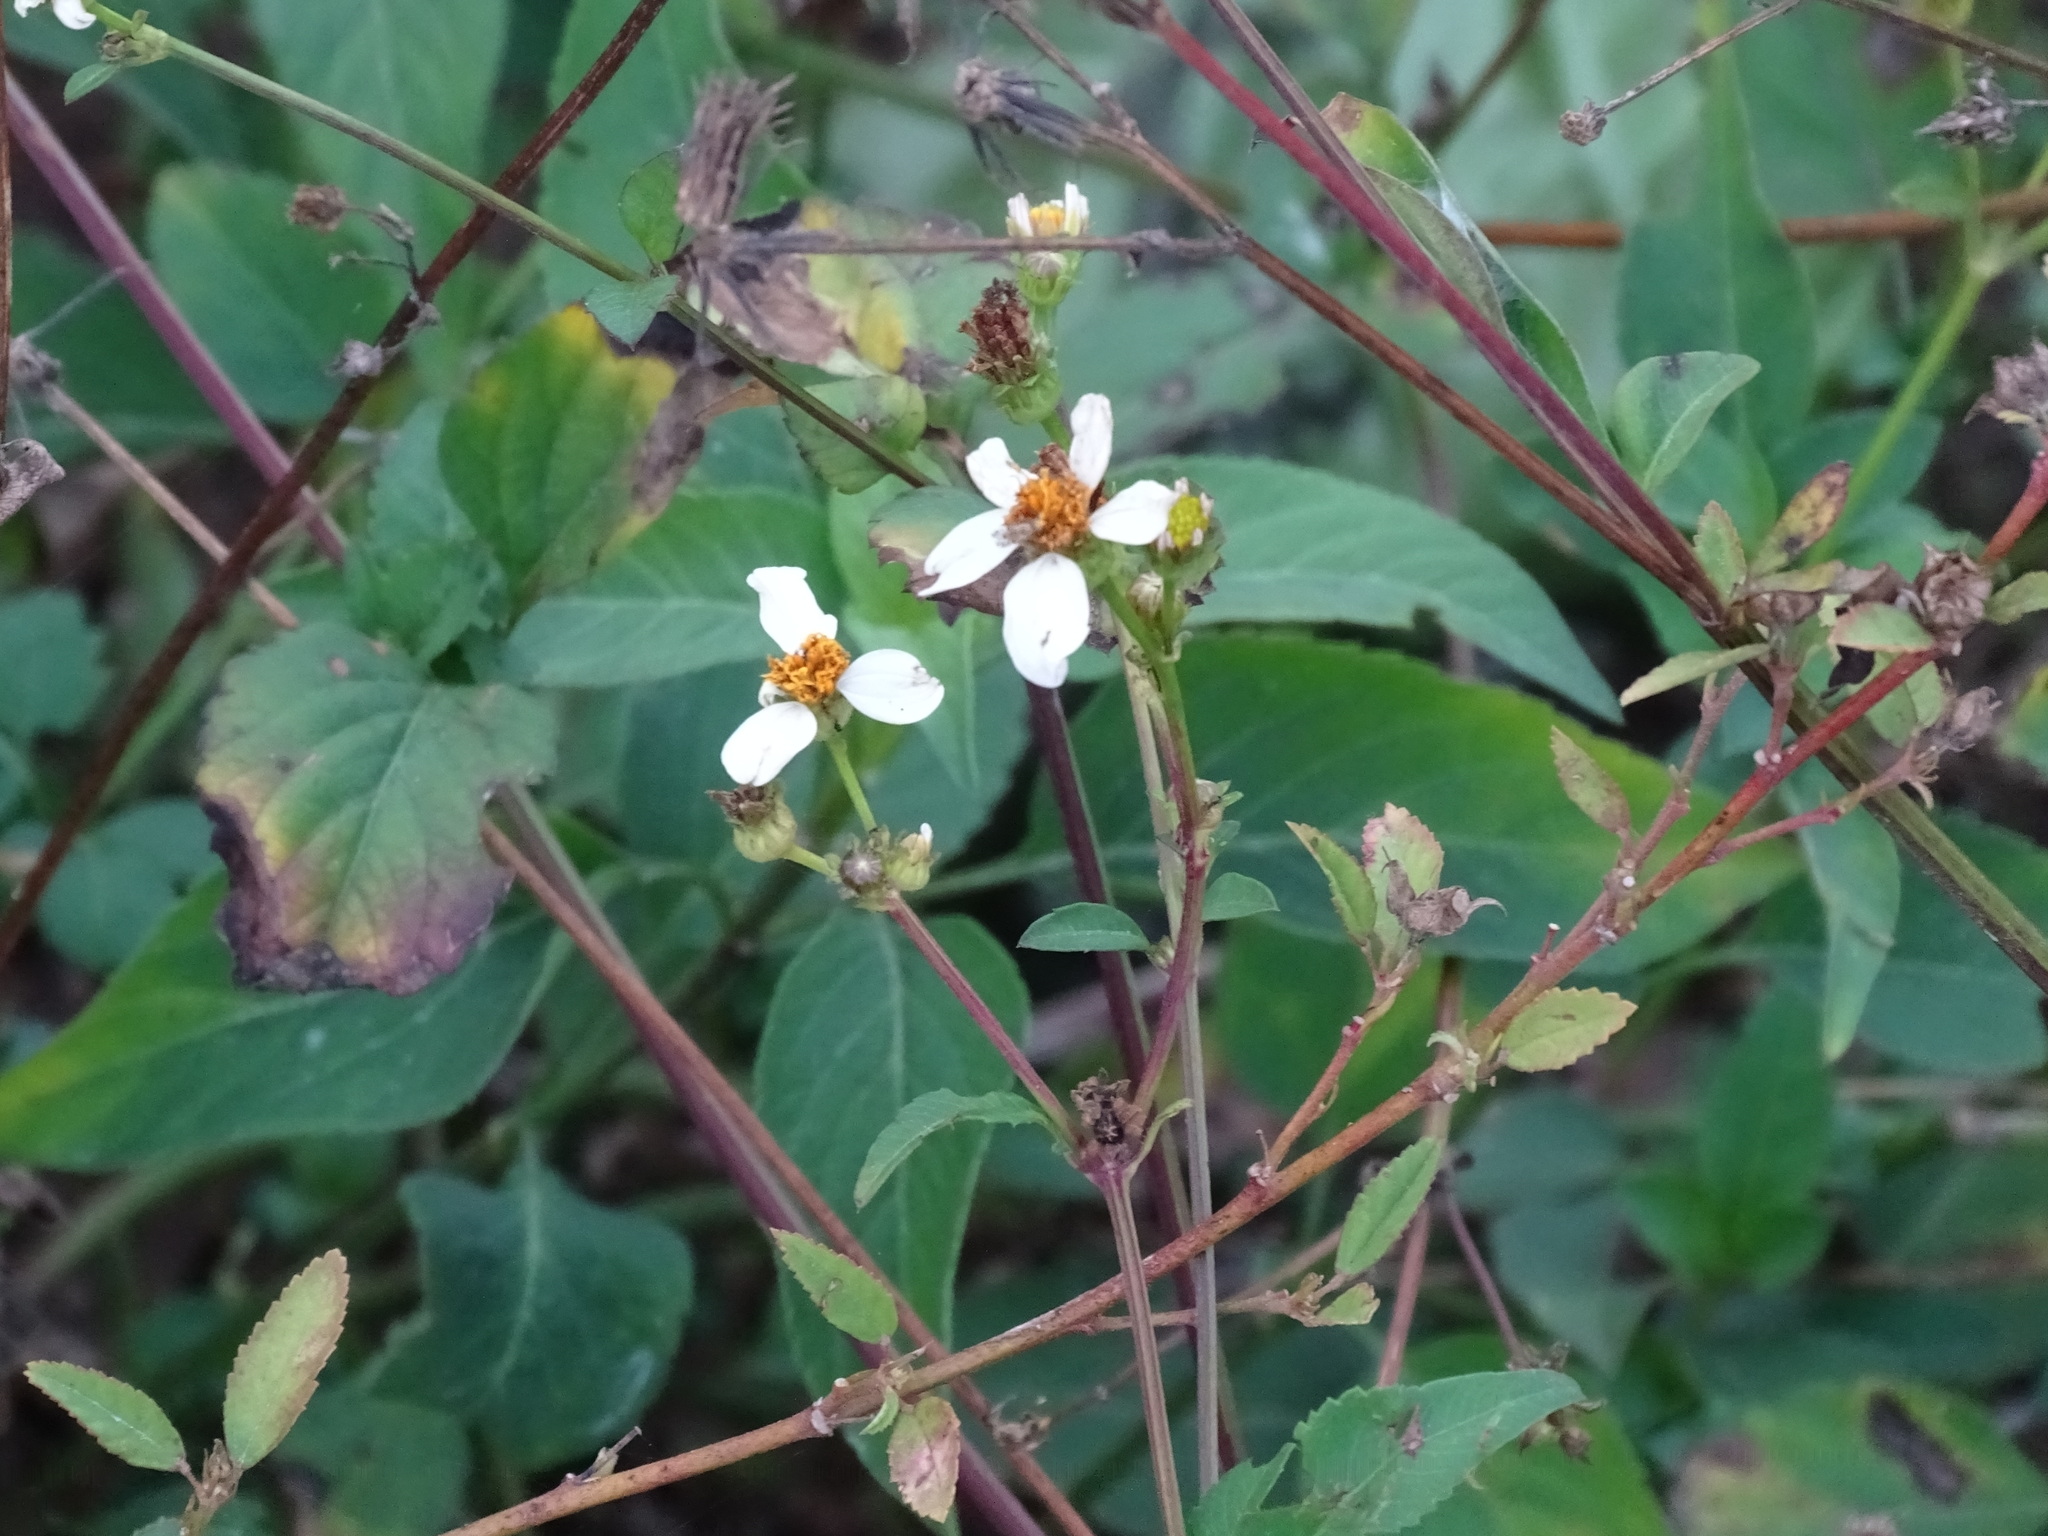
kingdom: Plantae
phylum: Tracheophyta
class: Magnoliopsida
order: Asterales
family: Asteraceae
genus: Bidens
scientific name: Bidens alba
